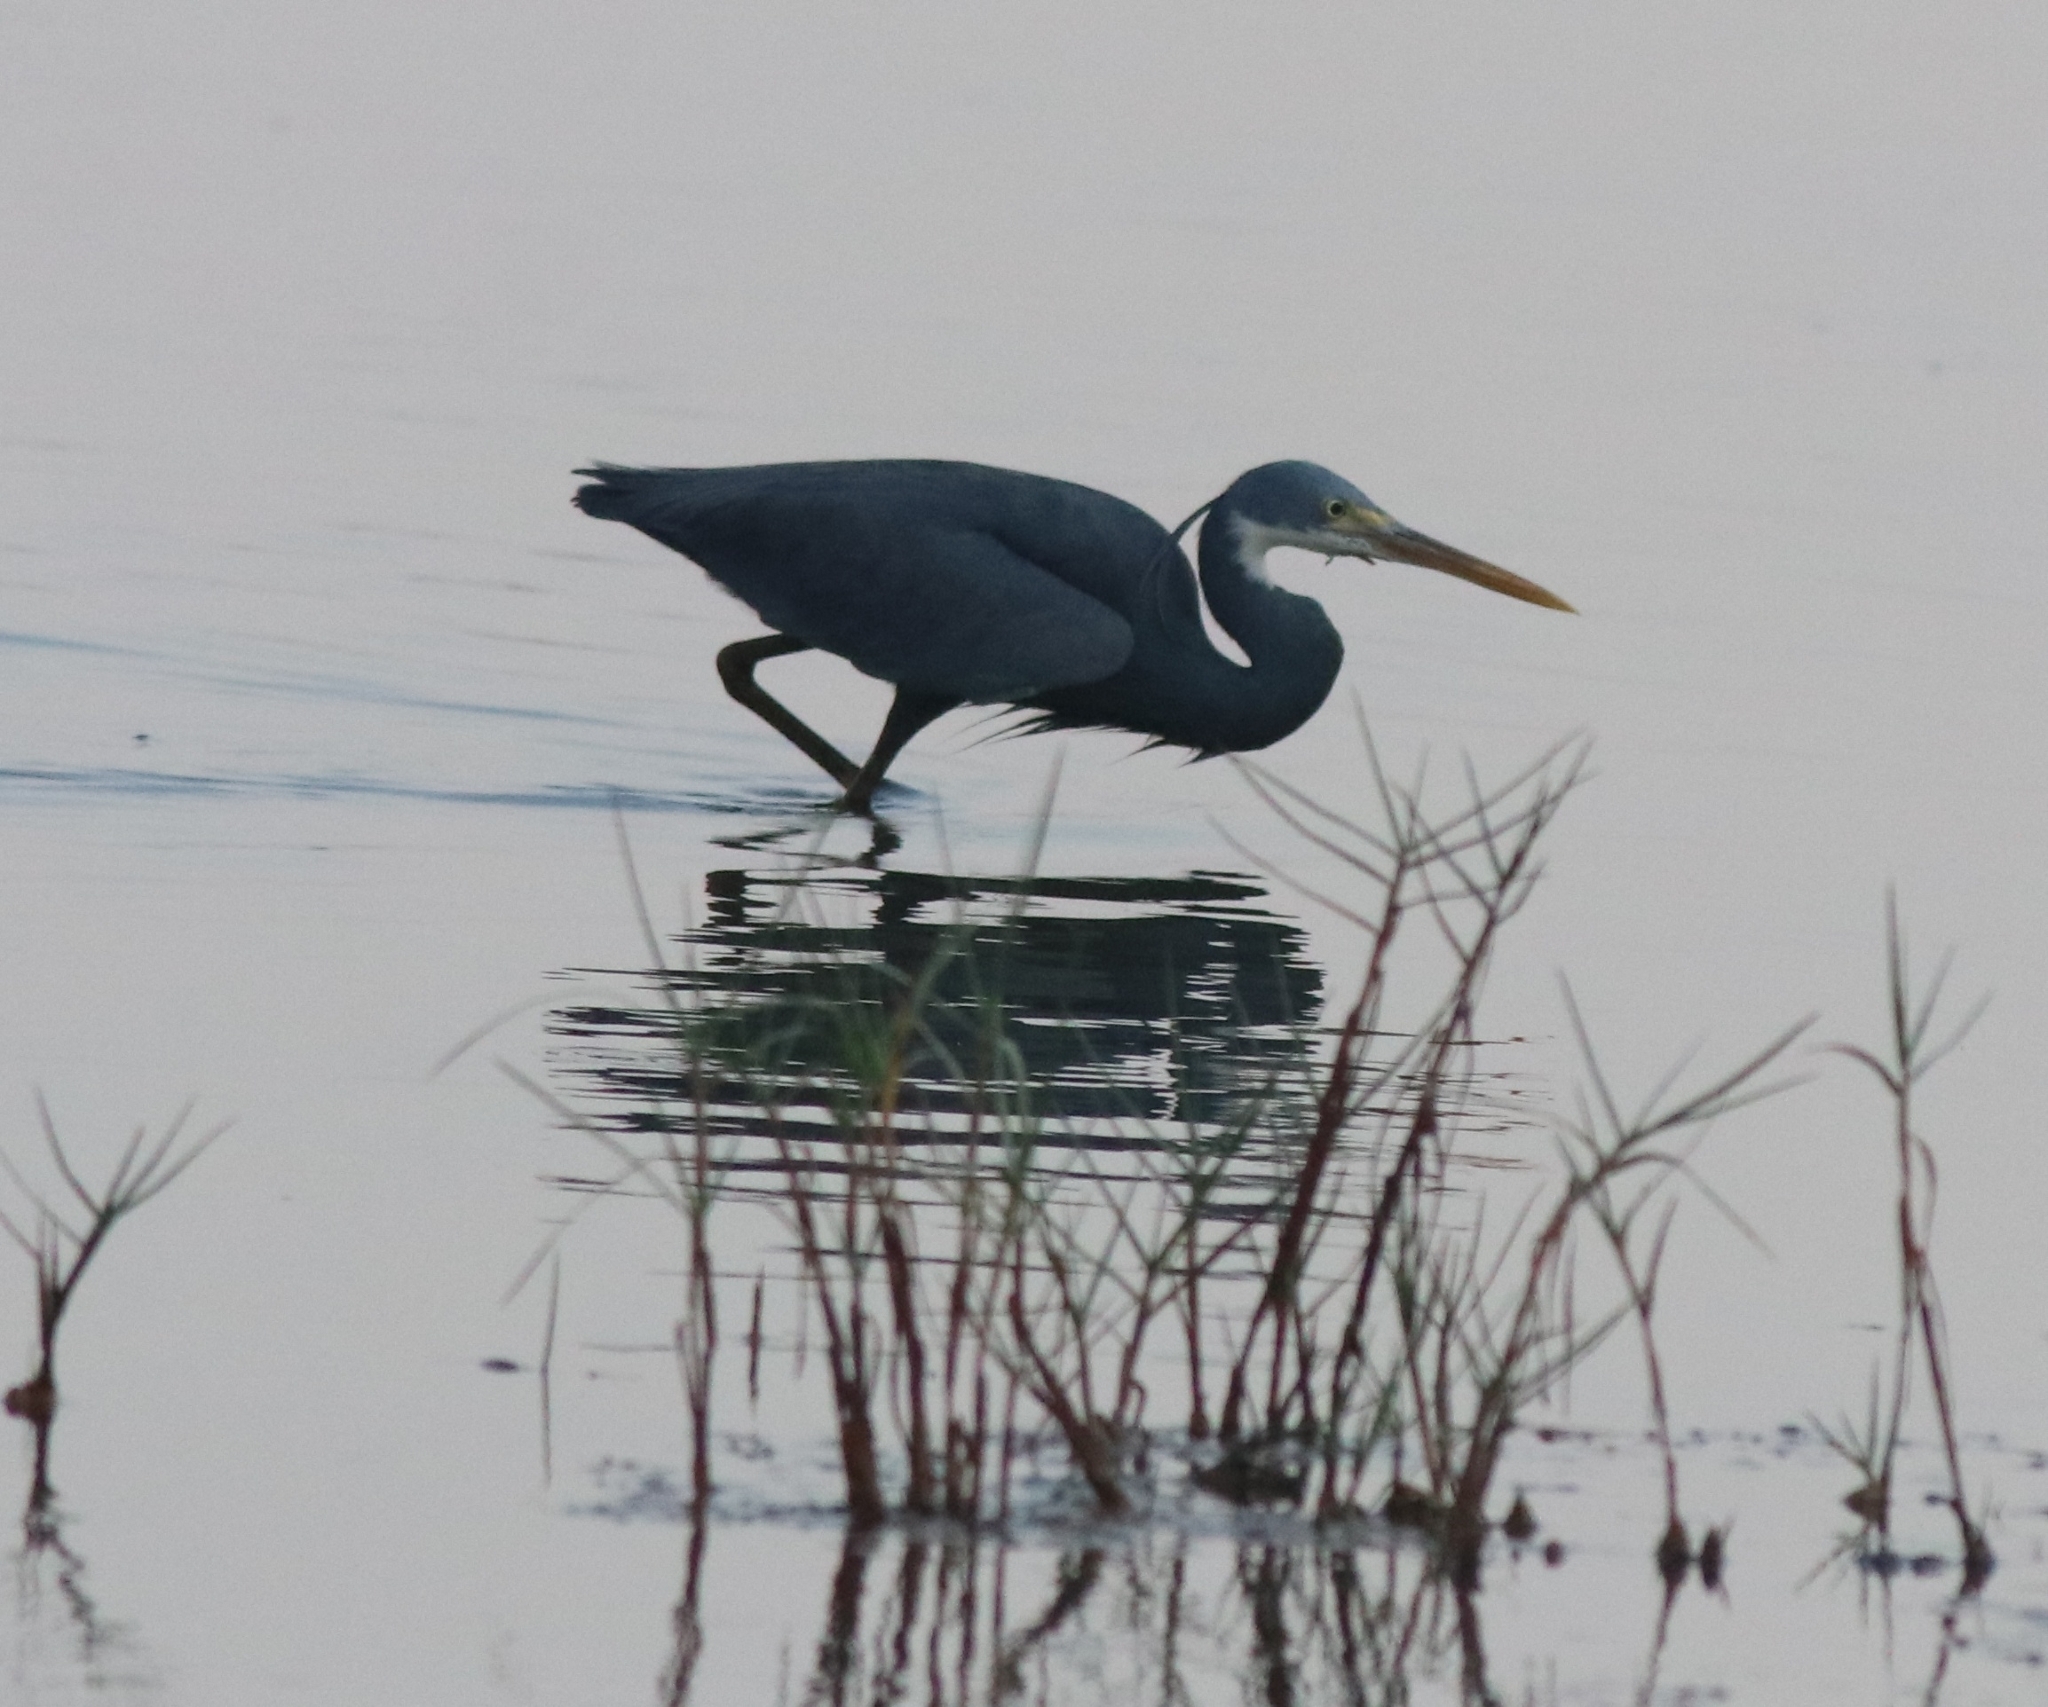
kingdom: Animalia
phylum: Chordata
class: Aves
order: Pelecaniformes
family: Ardeidae
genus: Egretta
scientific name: Egretta gularis
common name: Western reef-heron
